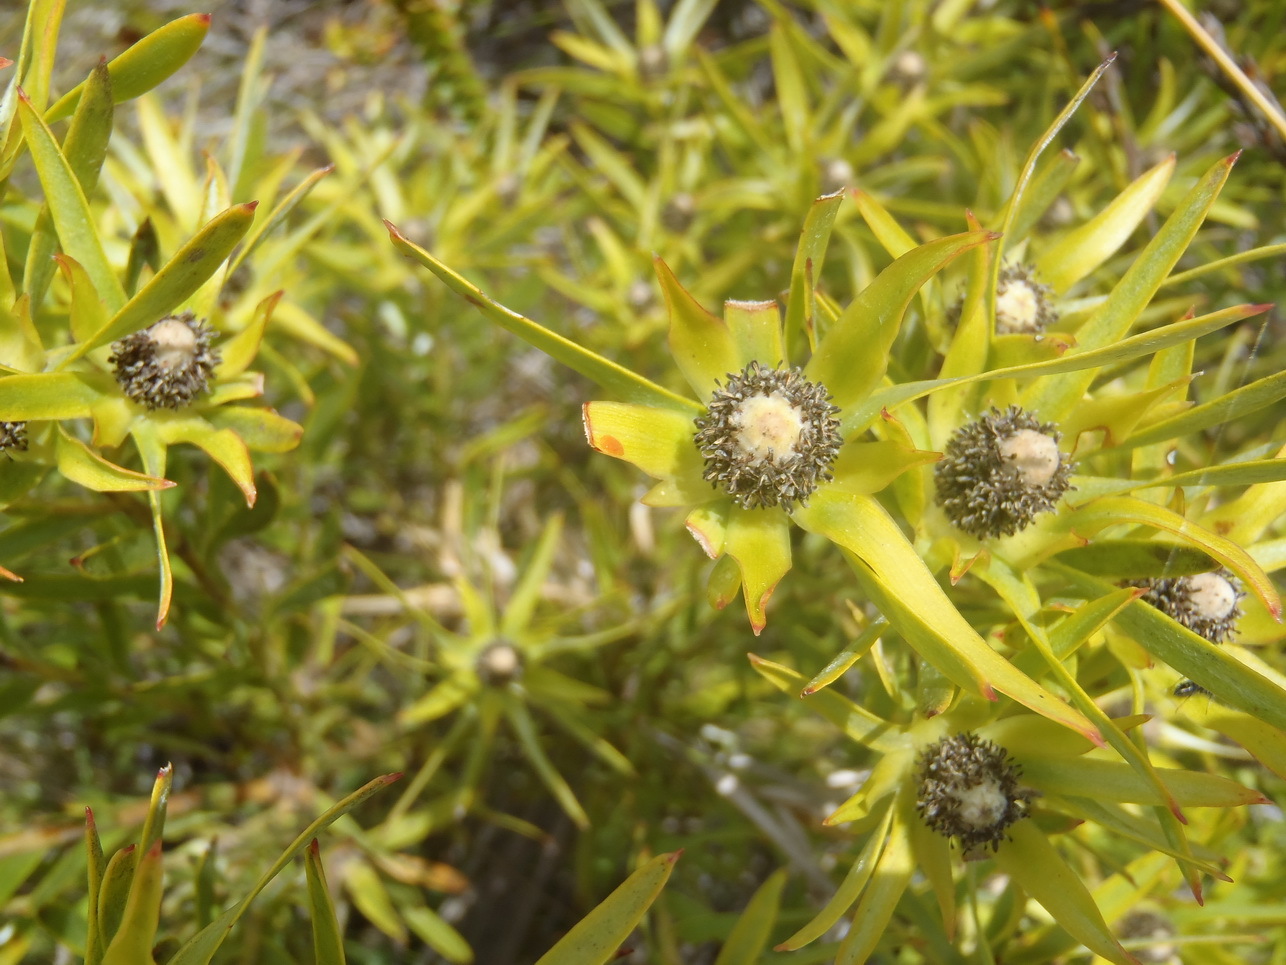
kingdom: Plantae
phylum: Tracheophyta
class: Magnoliopsida
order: Proteales
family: Proteaceae
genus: Leucadendron
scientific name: Leucadendron xanthoconus
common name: Sickle-leaf conebush
